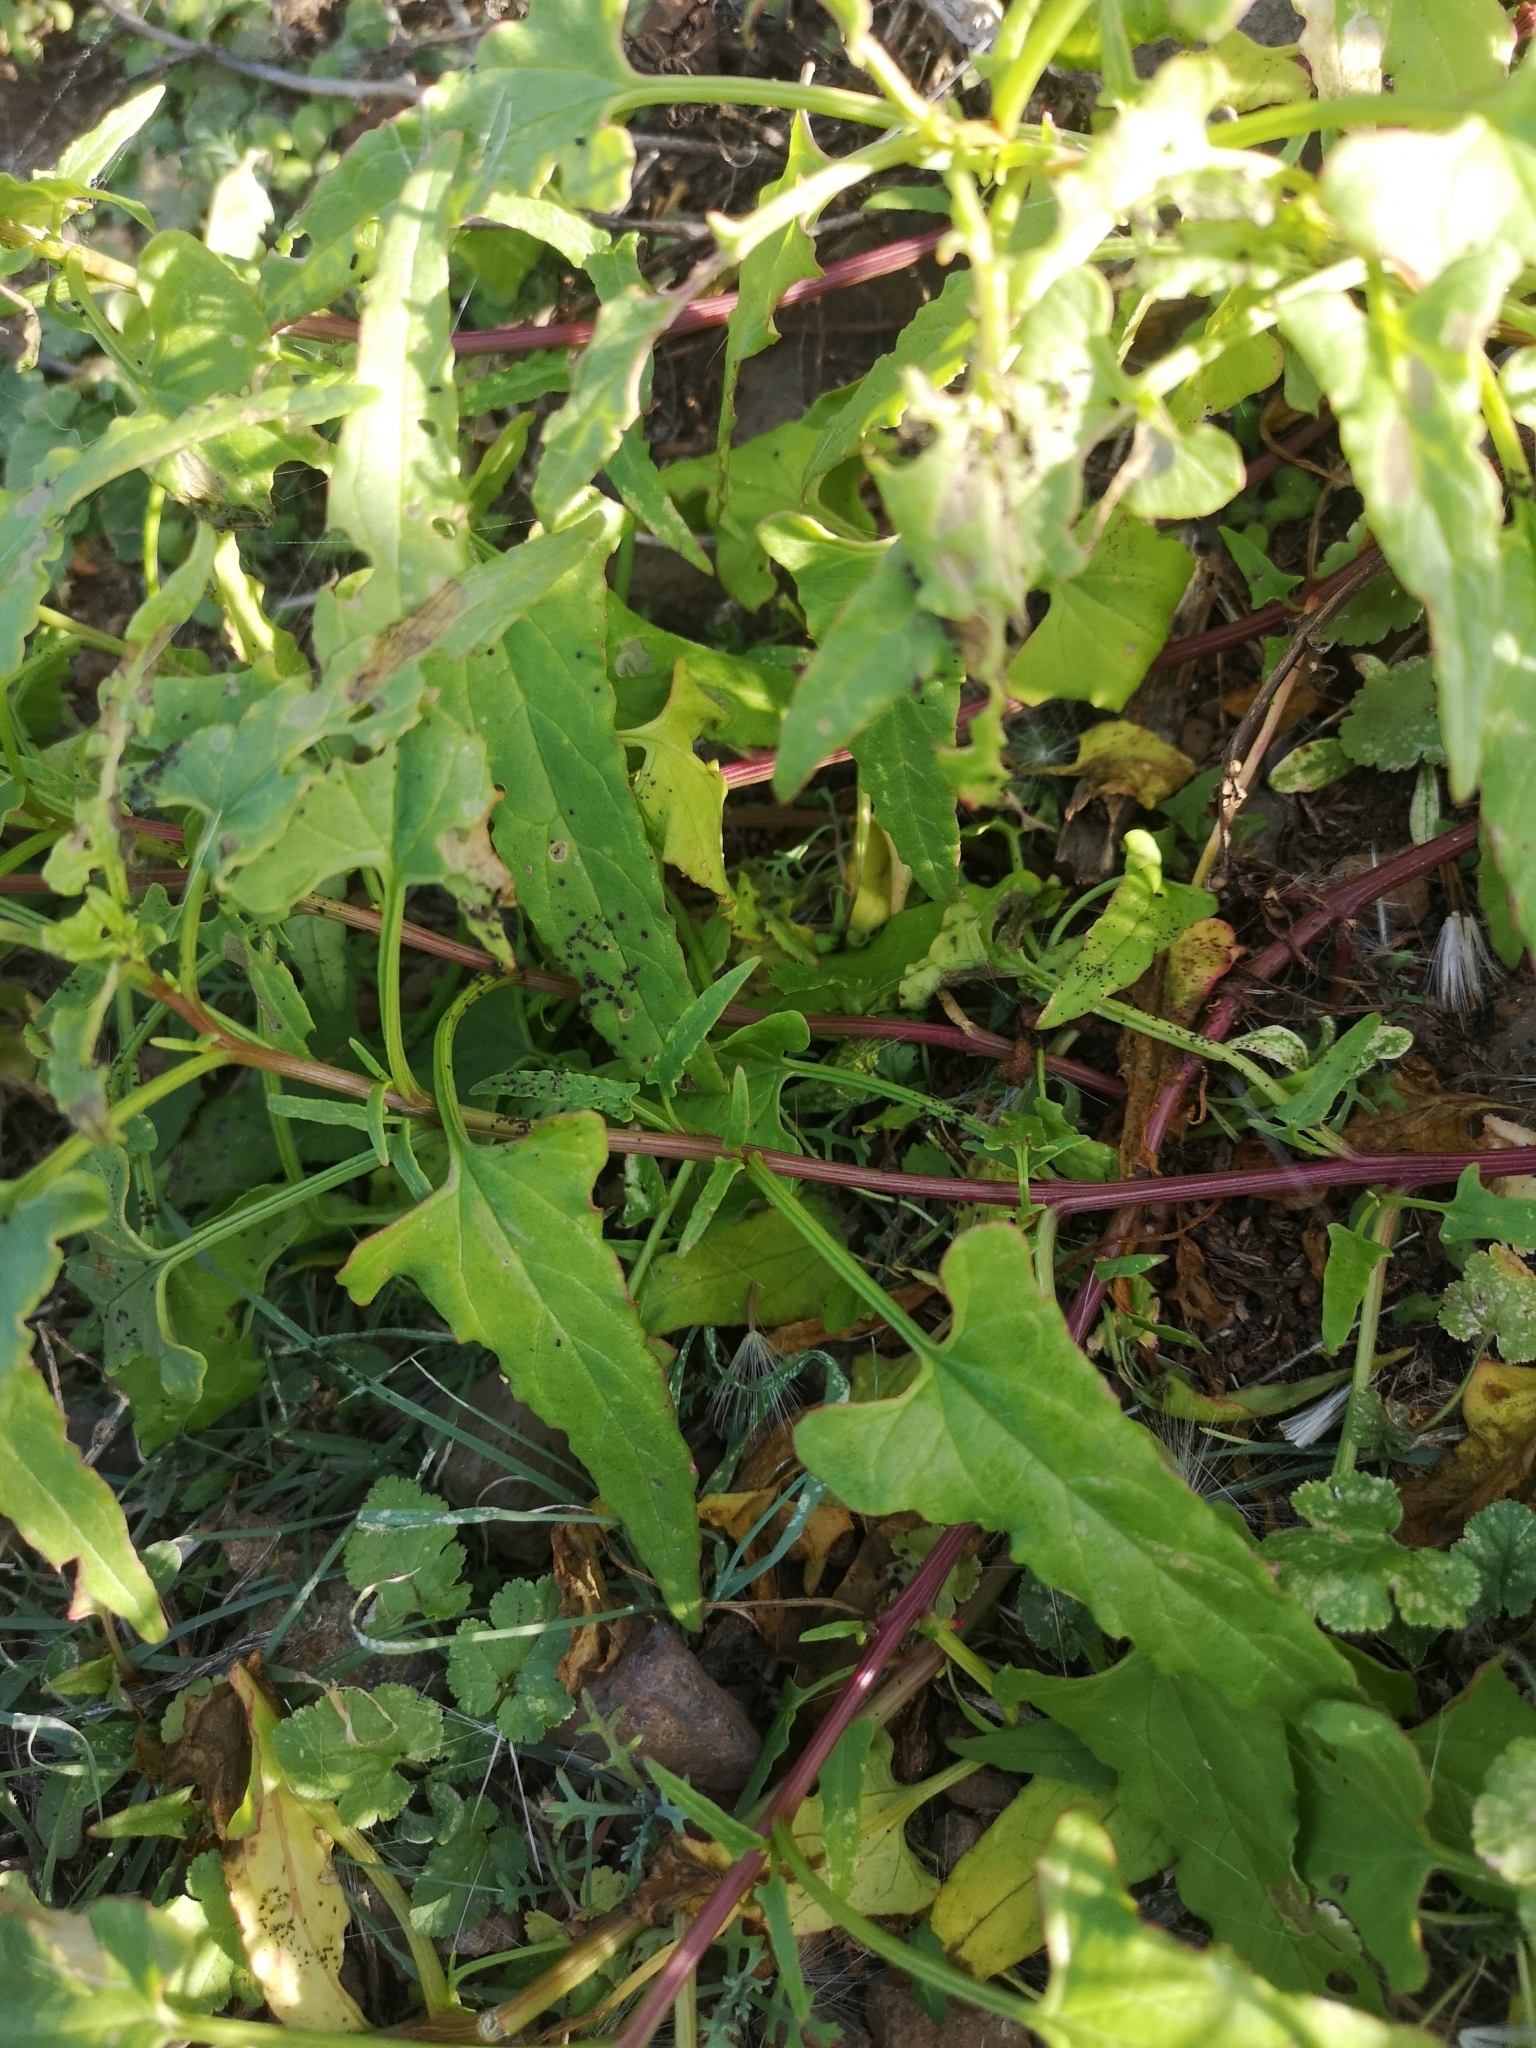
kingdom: Plantae
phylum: Tracheophyta
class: Magnoliopsida
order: Caryophyllales
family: Amaranthaceae
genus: Patellifolia
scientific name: Patellifolia procumbens
